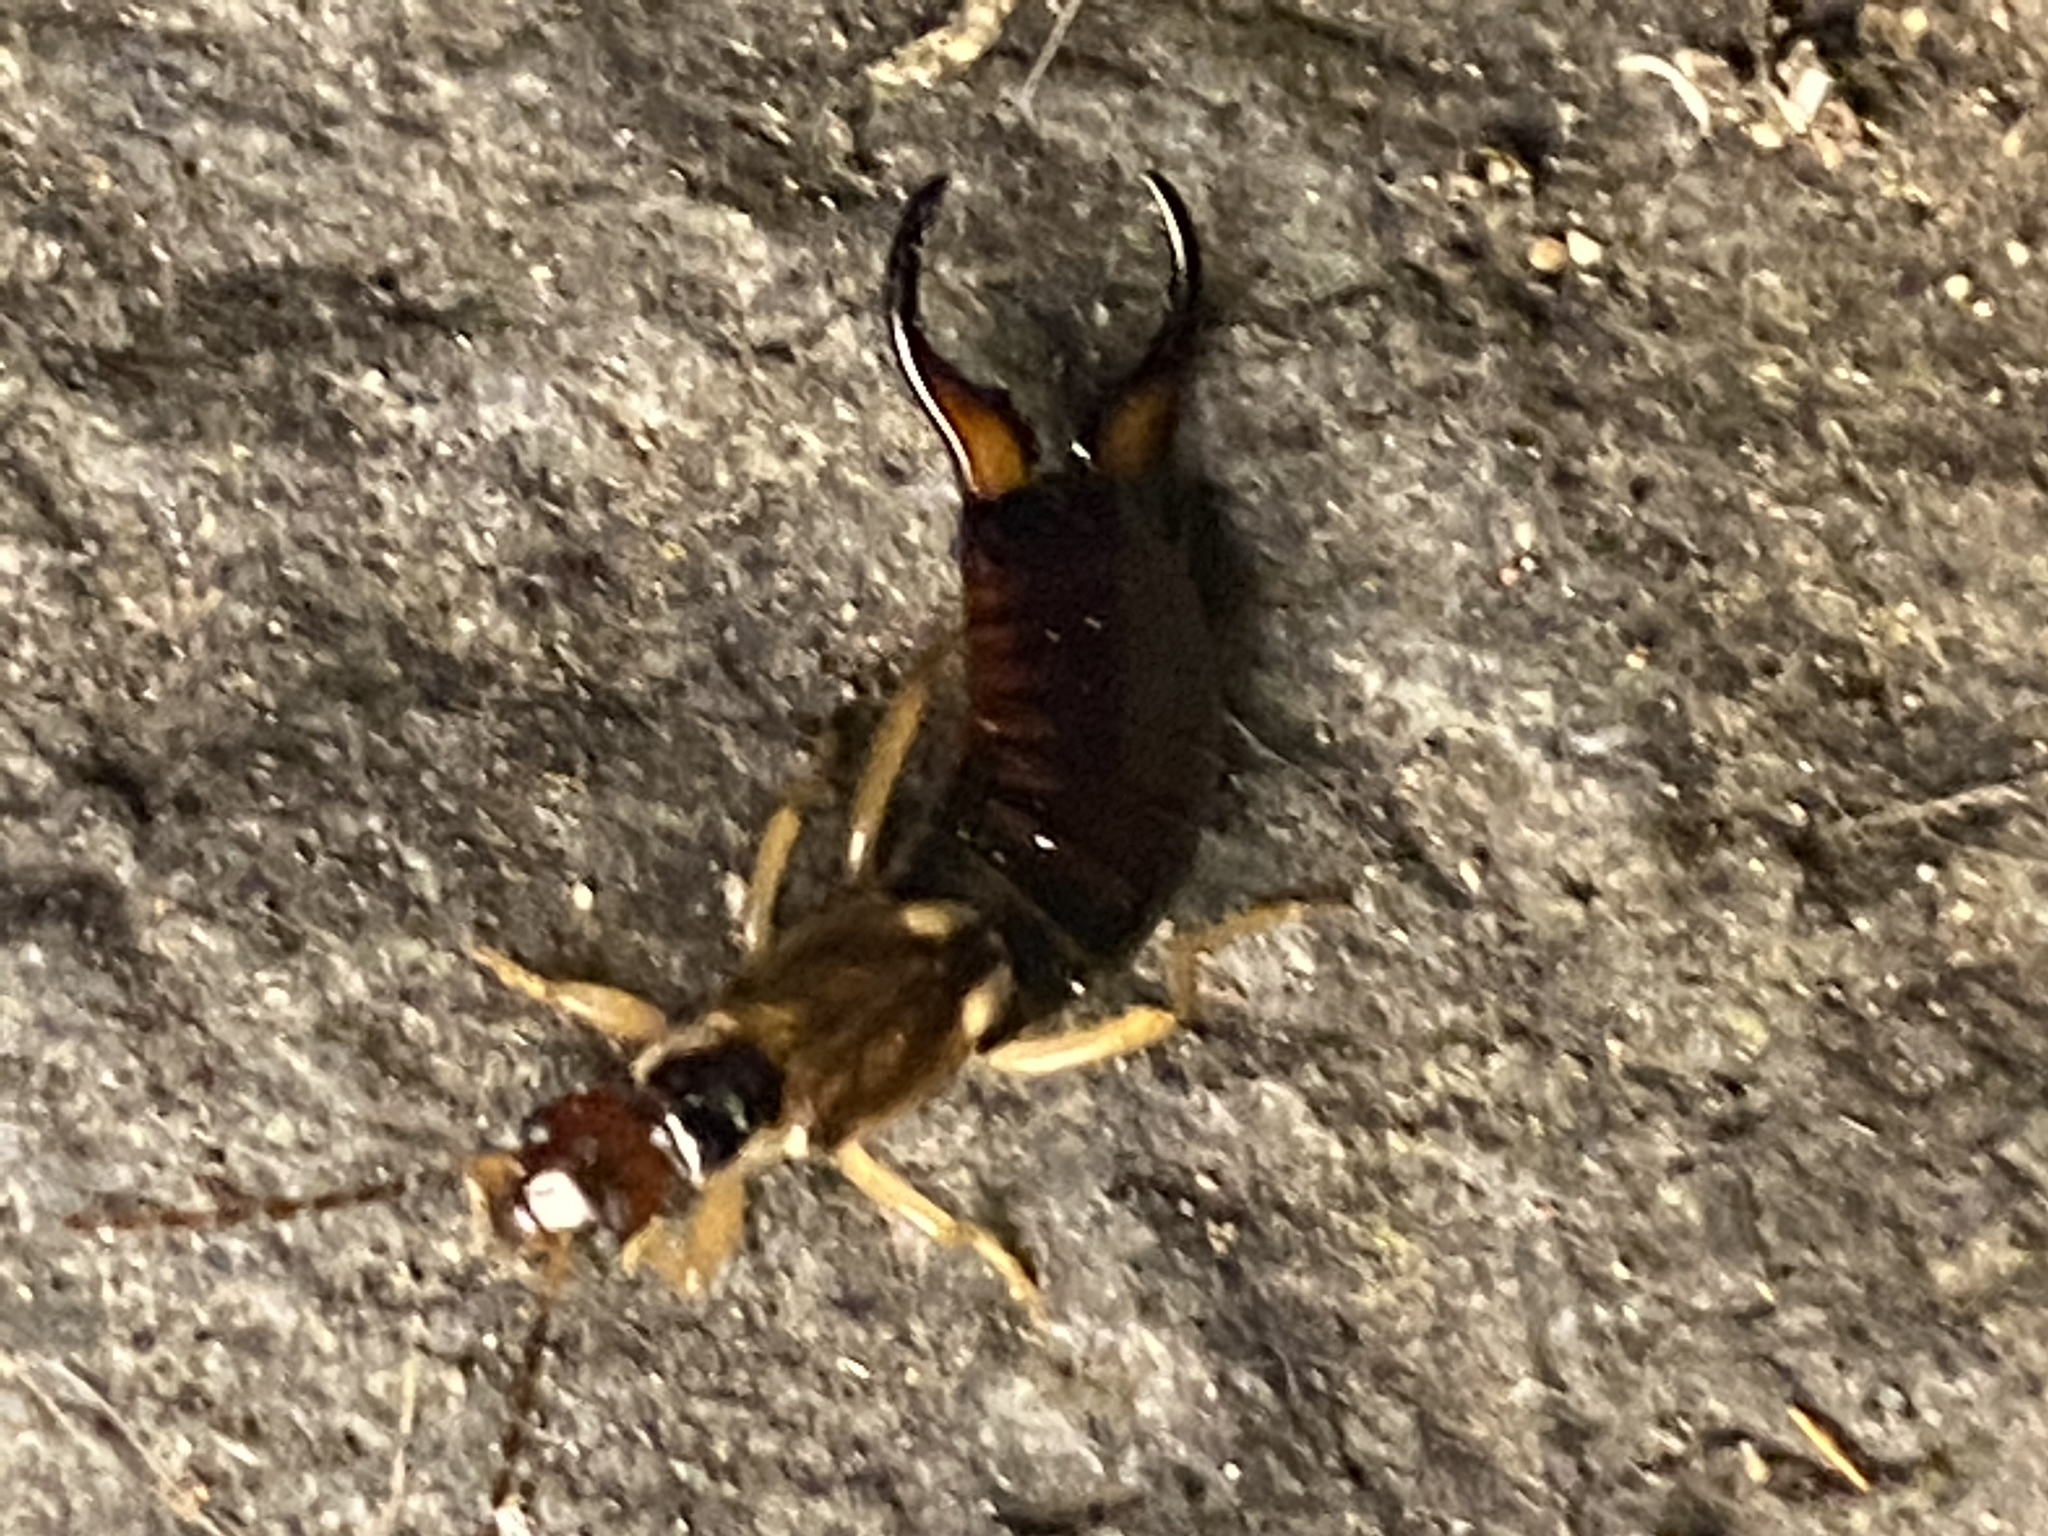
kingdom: Animalia
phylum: Arthropoda
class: Insecta
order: Dermaptera
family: Forficulidae
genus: Forficula
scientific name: Forficula
